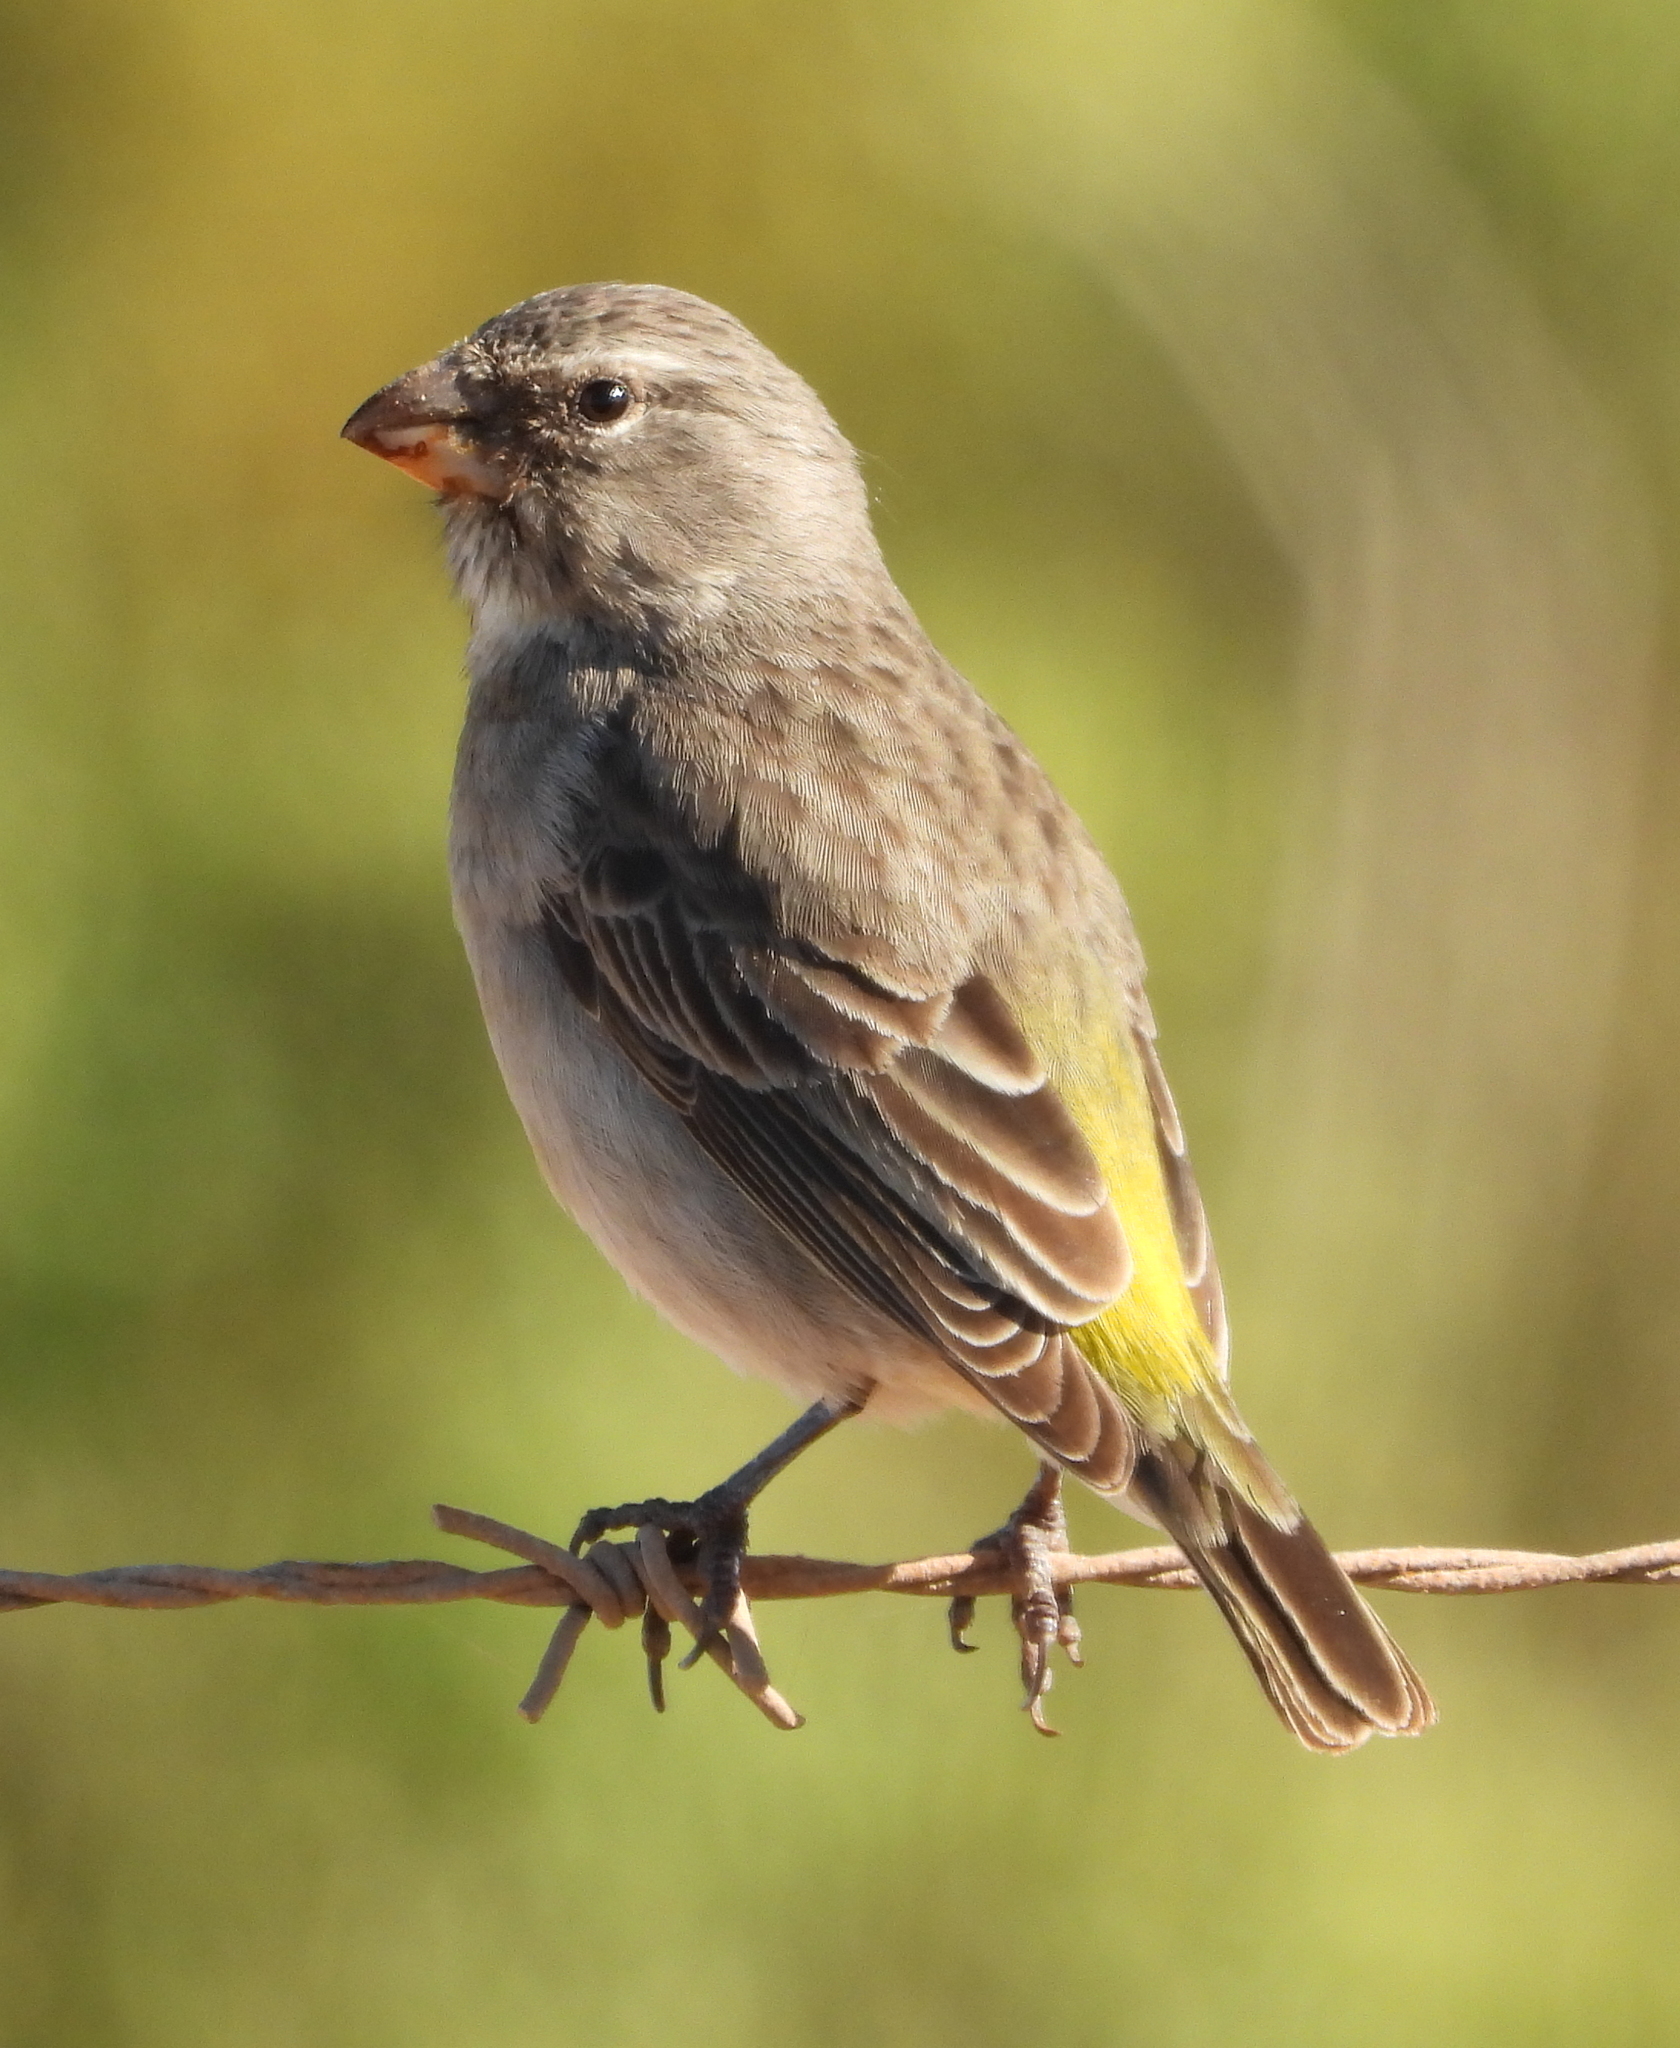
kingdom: Animalia
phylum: Chordata
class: Aves
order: Passeriformes
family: Fringillidae
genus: Crithagra
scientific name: Crithagra albogularis
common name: White-throated canary
